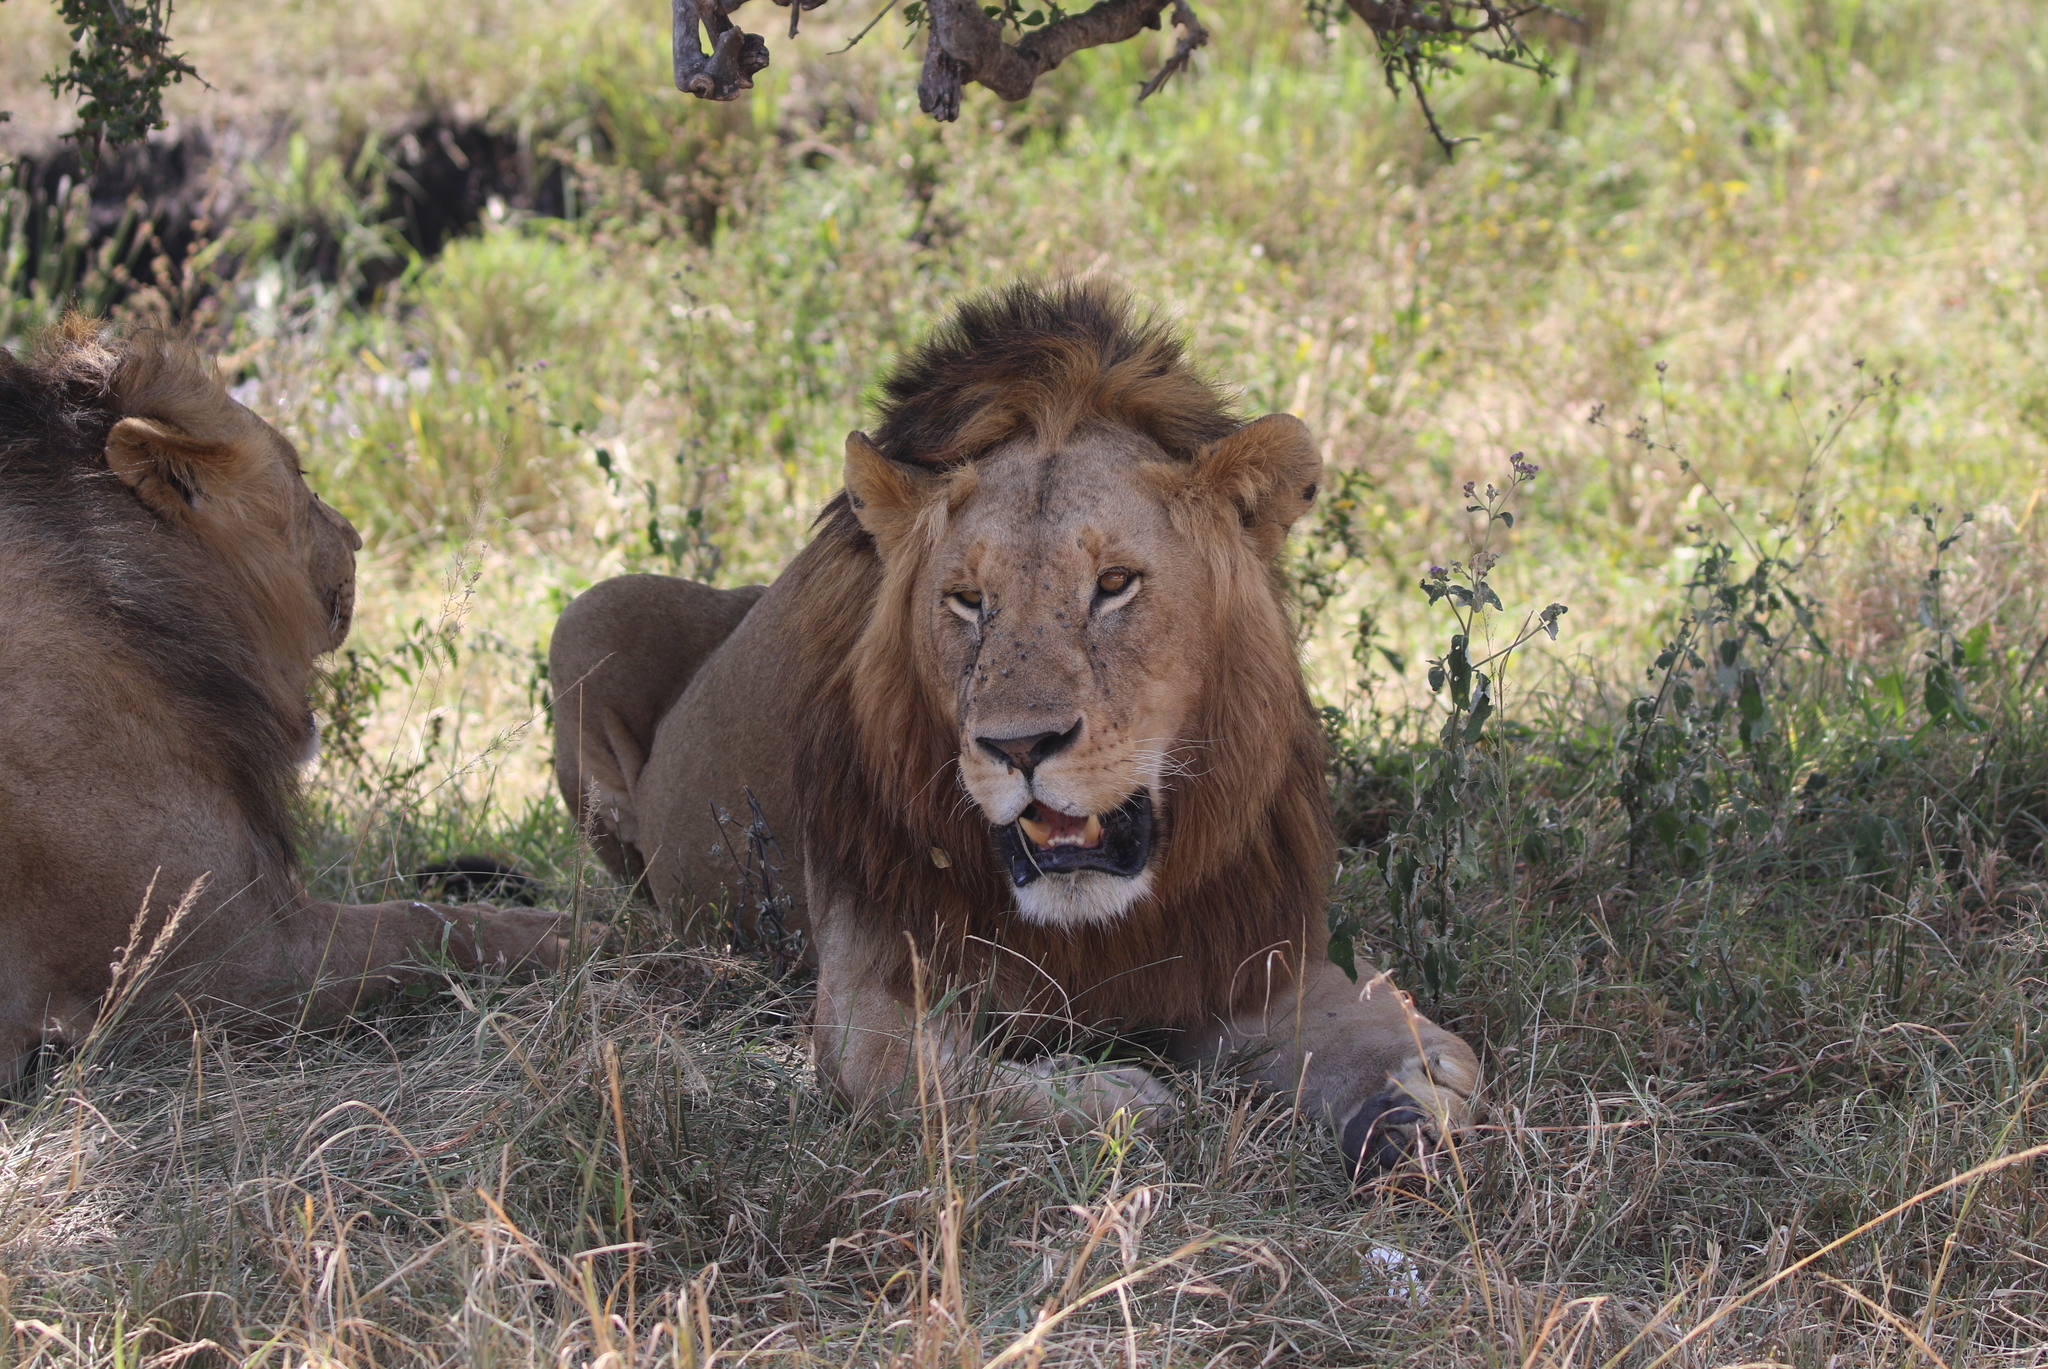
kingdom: Animalia
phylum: Chordata
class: Mammalia
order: Carnivora
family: Felidae
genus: Panthera
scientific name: Panthera leo
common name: Lion
